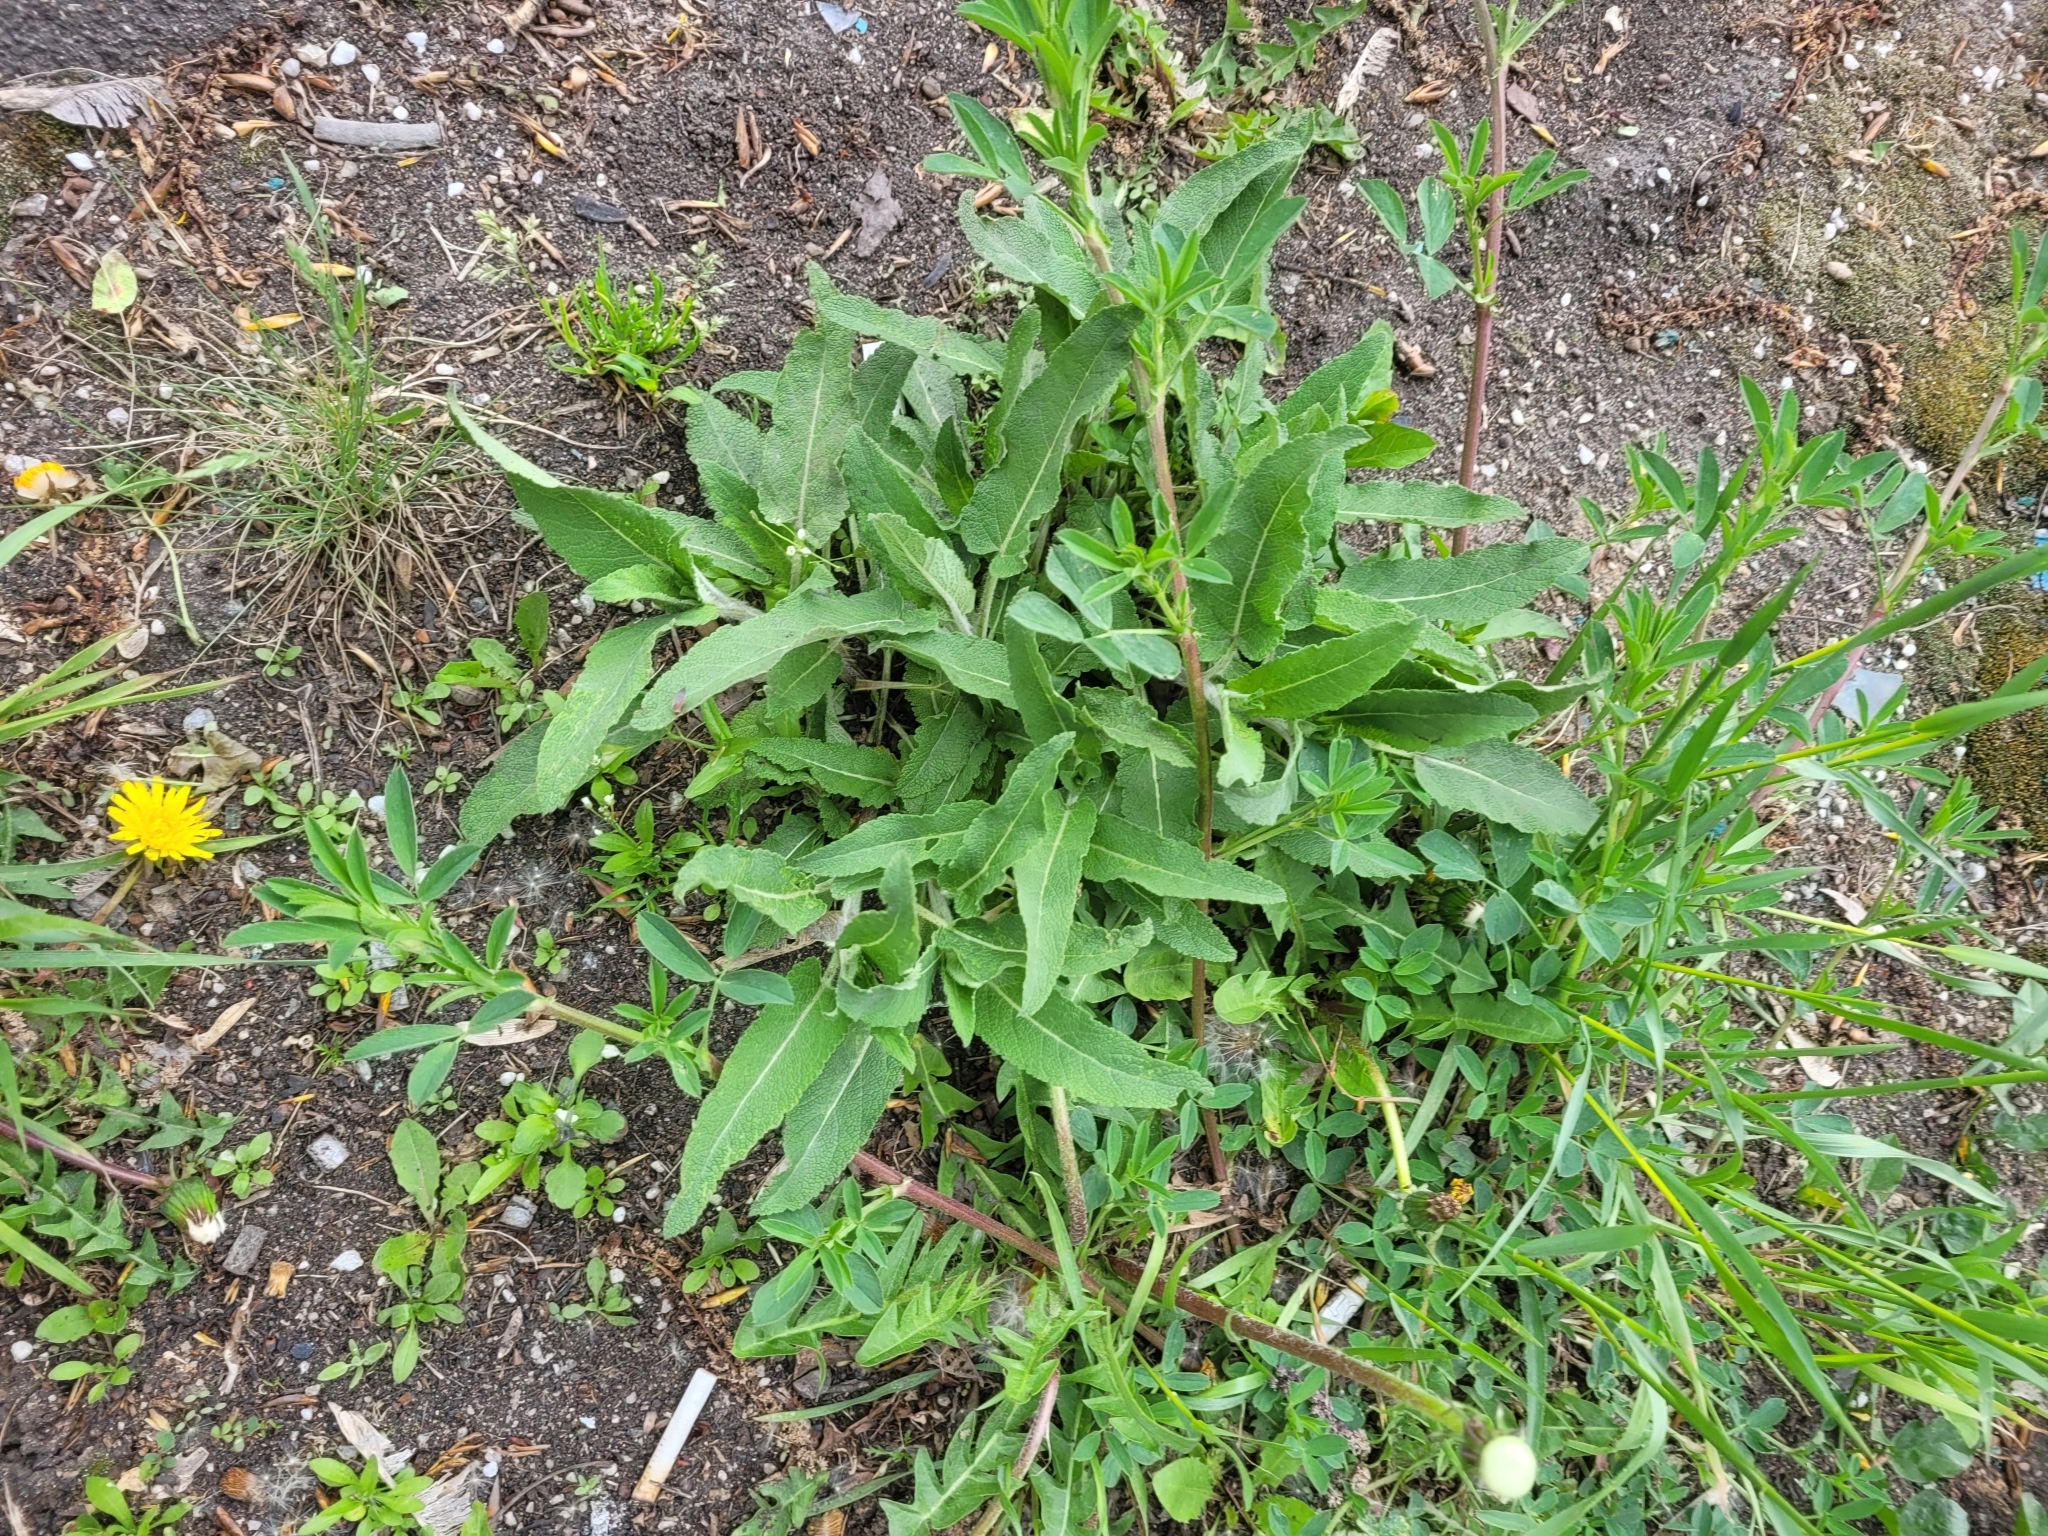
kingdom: Plantae
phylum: Tracheophyta
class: Magnoliopsida
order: Lamiales
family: Lamiaceae
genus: Salvia
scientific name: Salvia nemorosa
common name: Balkan clary
